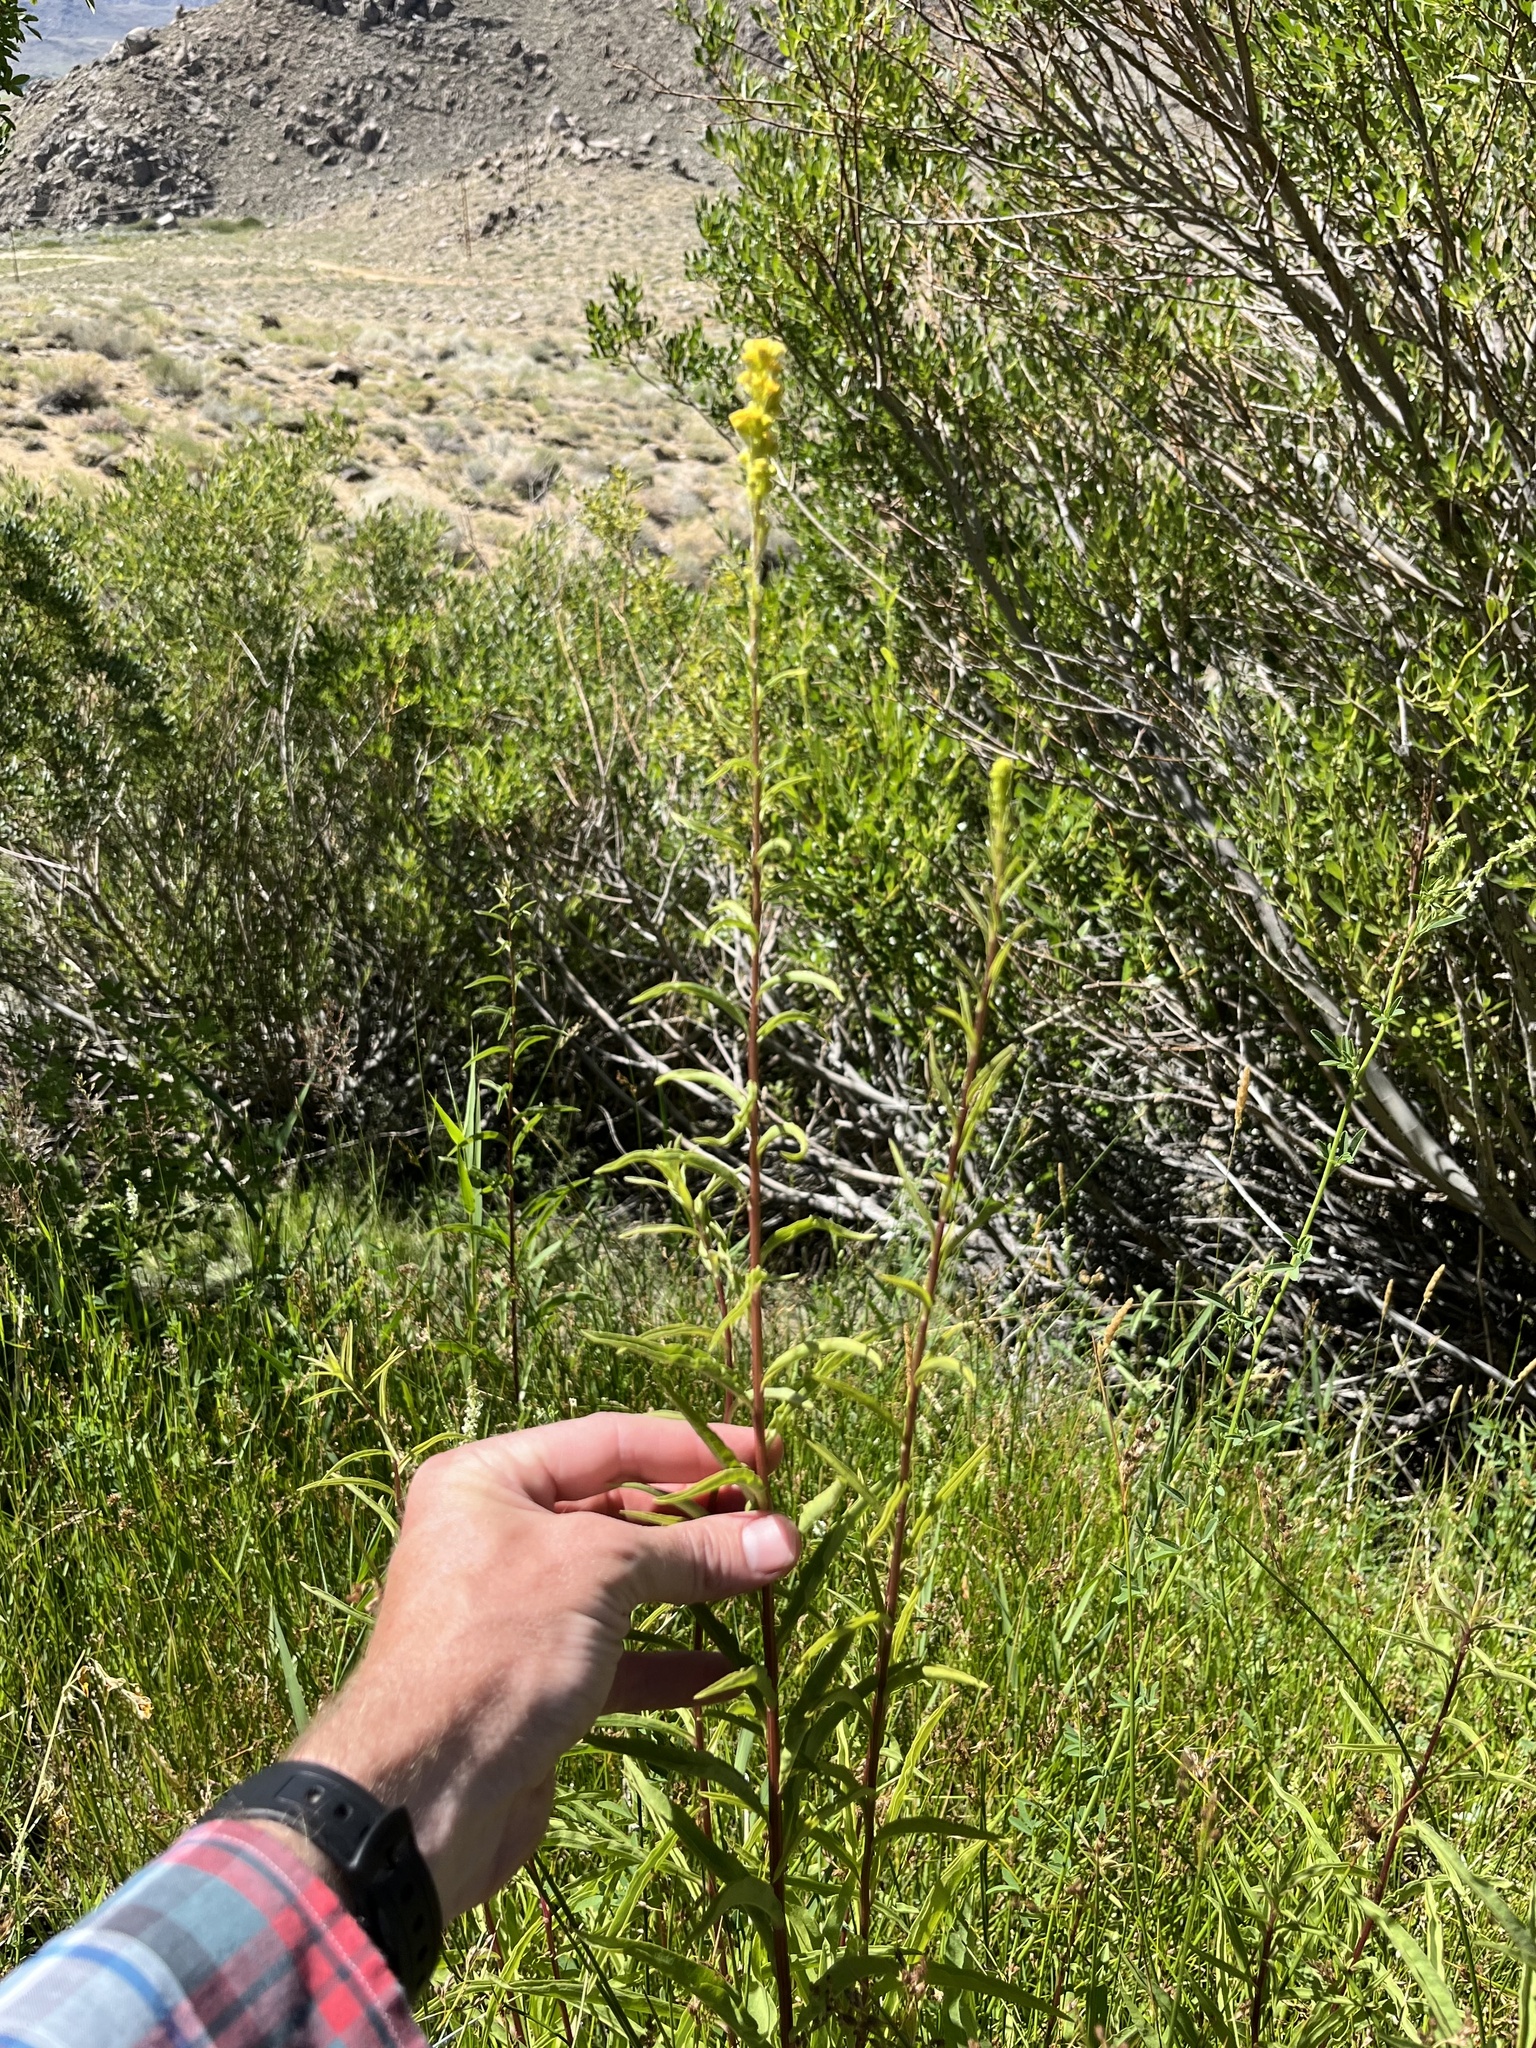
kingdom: Plantae
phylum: Tracheophyta
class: Magnoliopsida
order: Asterales
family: Asteraceae
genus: Solidago
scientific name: Solidago spectabilis
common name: Basin goldenrod
